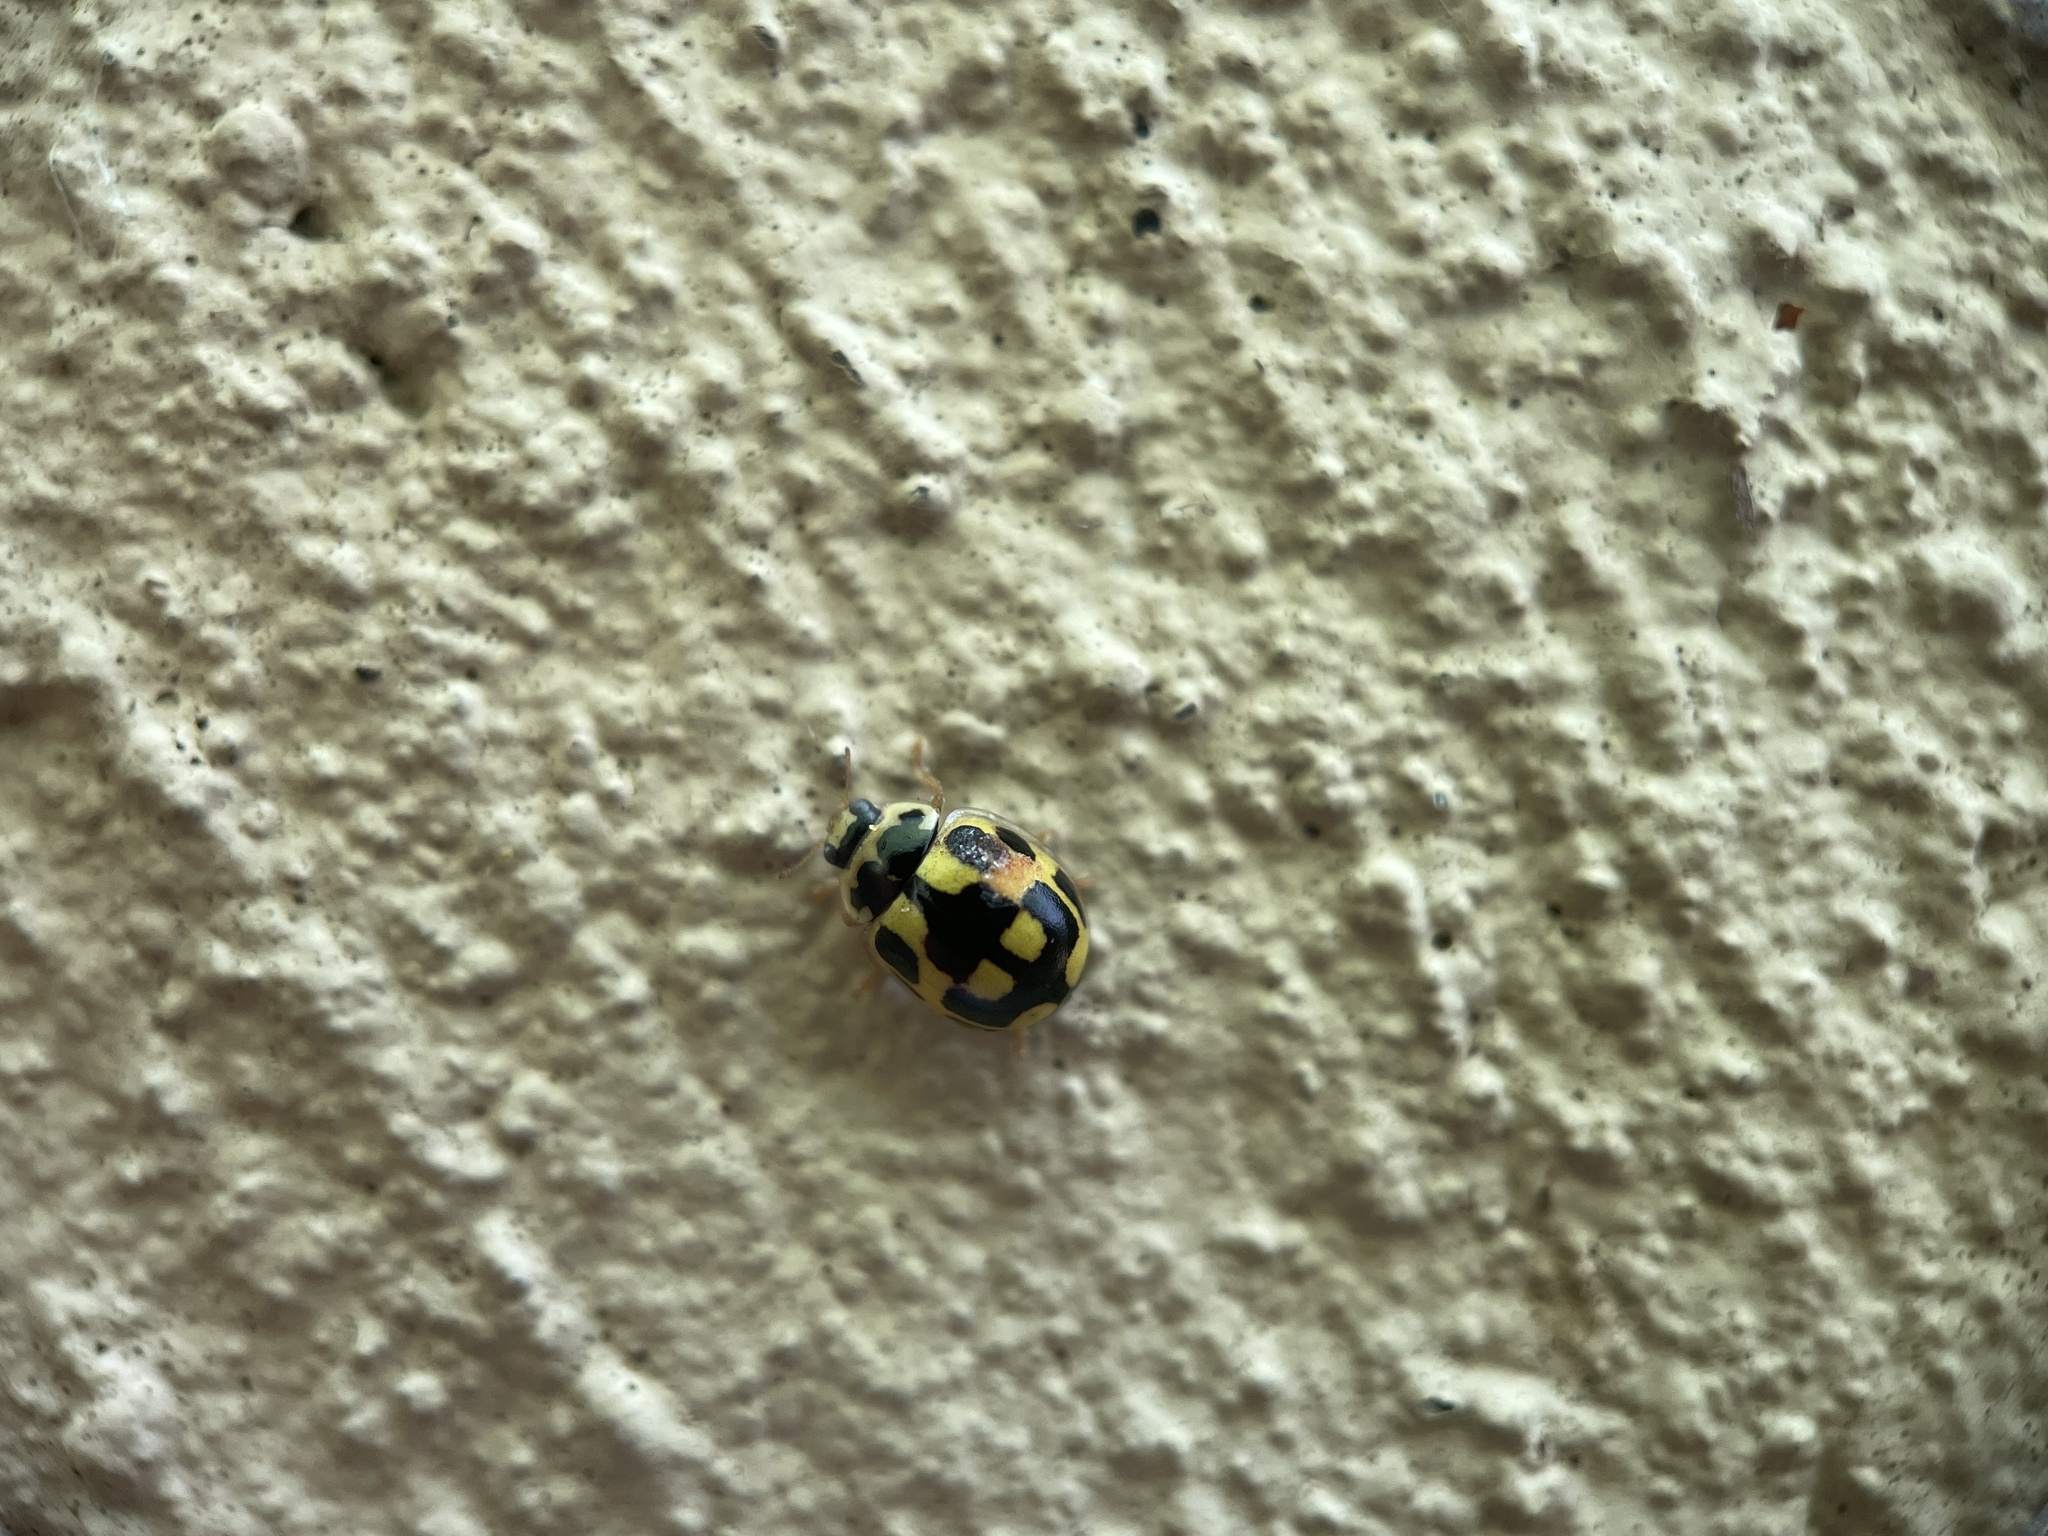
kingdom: Animalia
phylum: Arthropoda
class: Insecta
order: Coleoptera
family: Coccinellidae
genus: Propylaea
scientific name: Propylaea quatuordecimpunctata
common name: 14-spotted ladybird beetle
